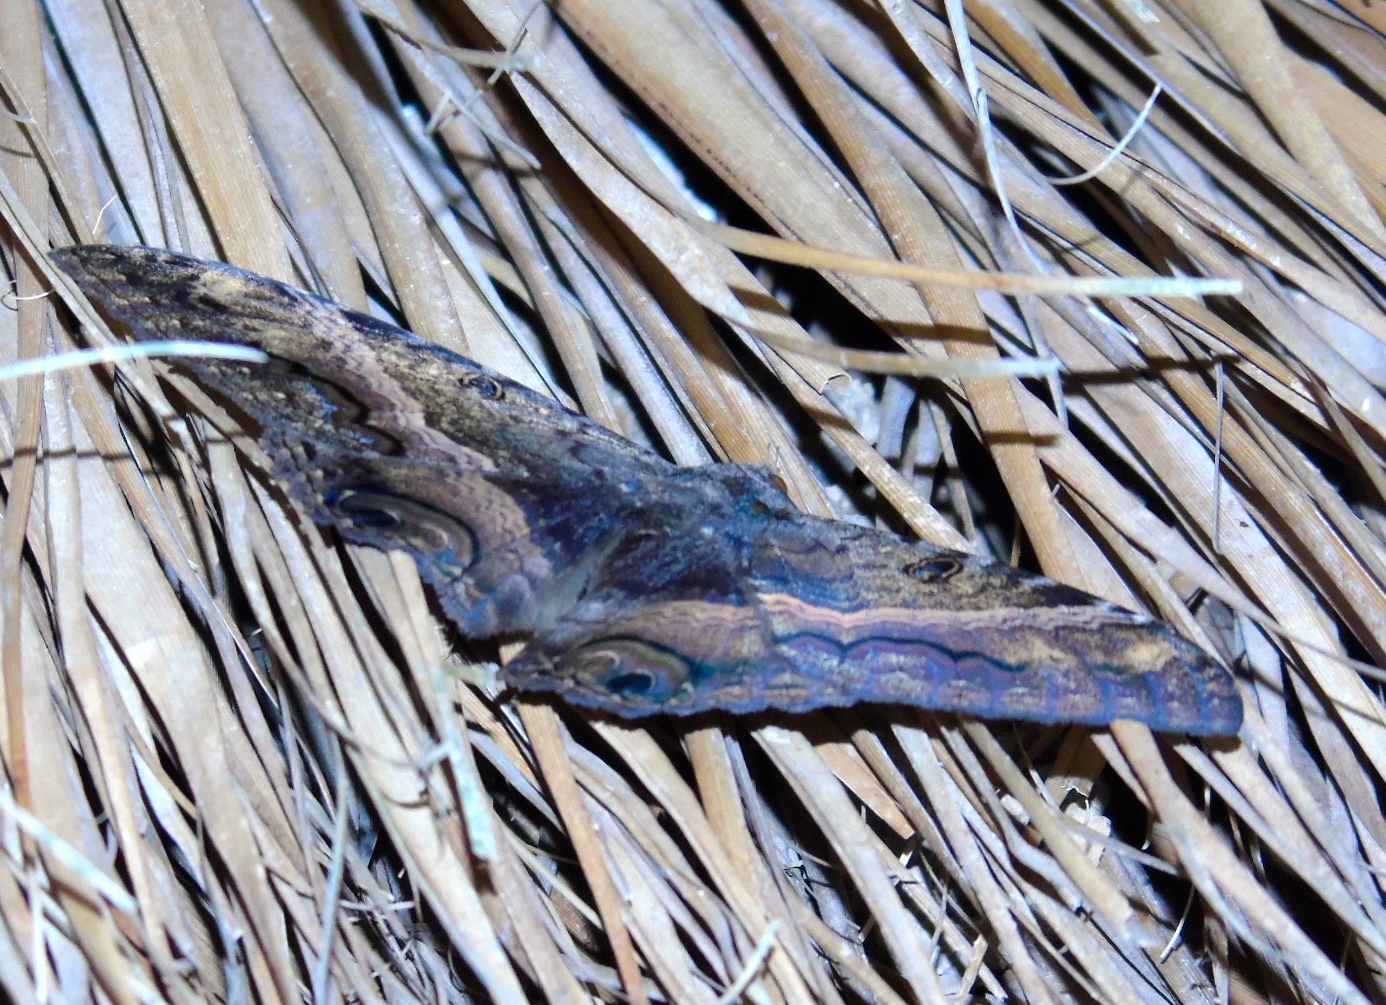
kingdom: Animalia
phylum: Arthropoda
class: Insecta
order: Lepidoptera
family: Erebidae
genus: Ascalapha
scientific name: Ascalapha odorata
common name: Black witch
